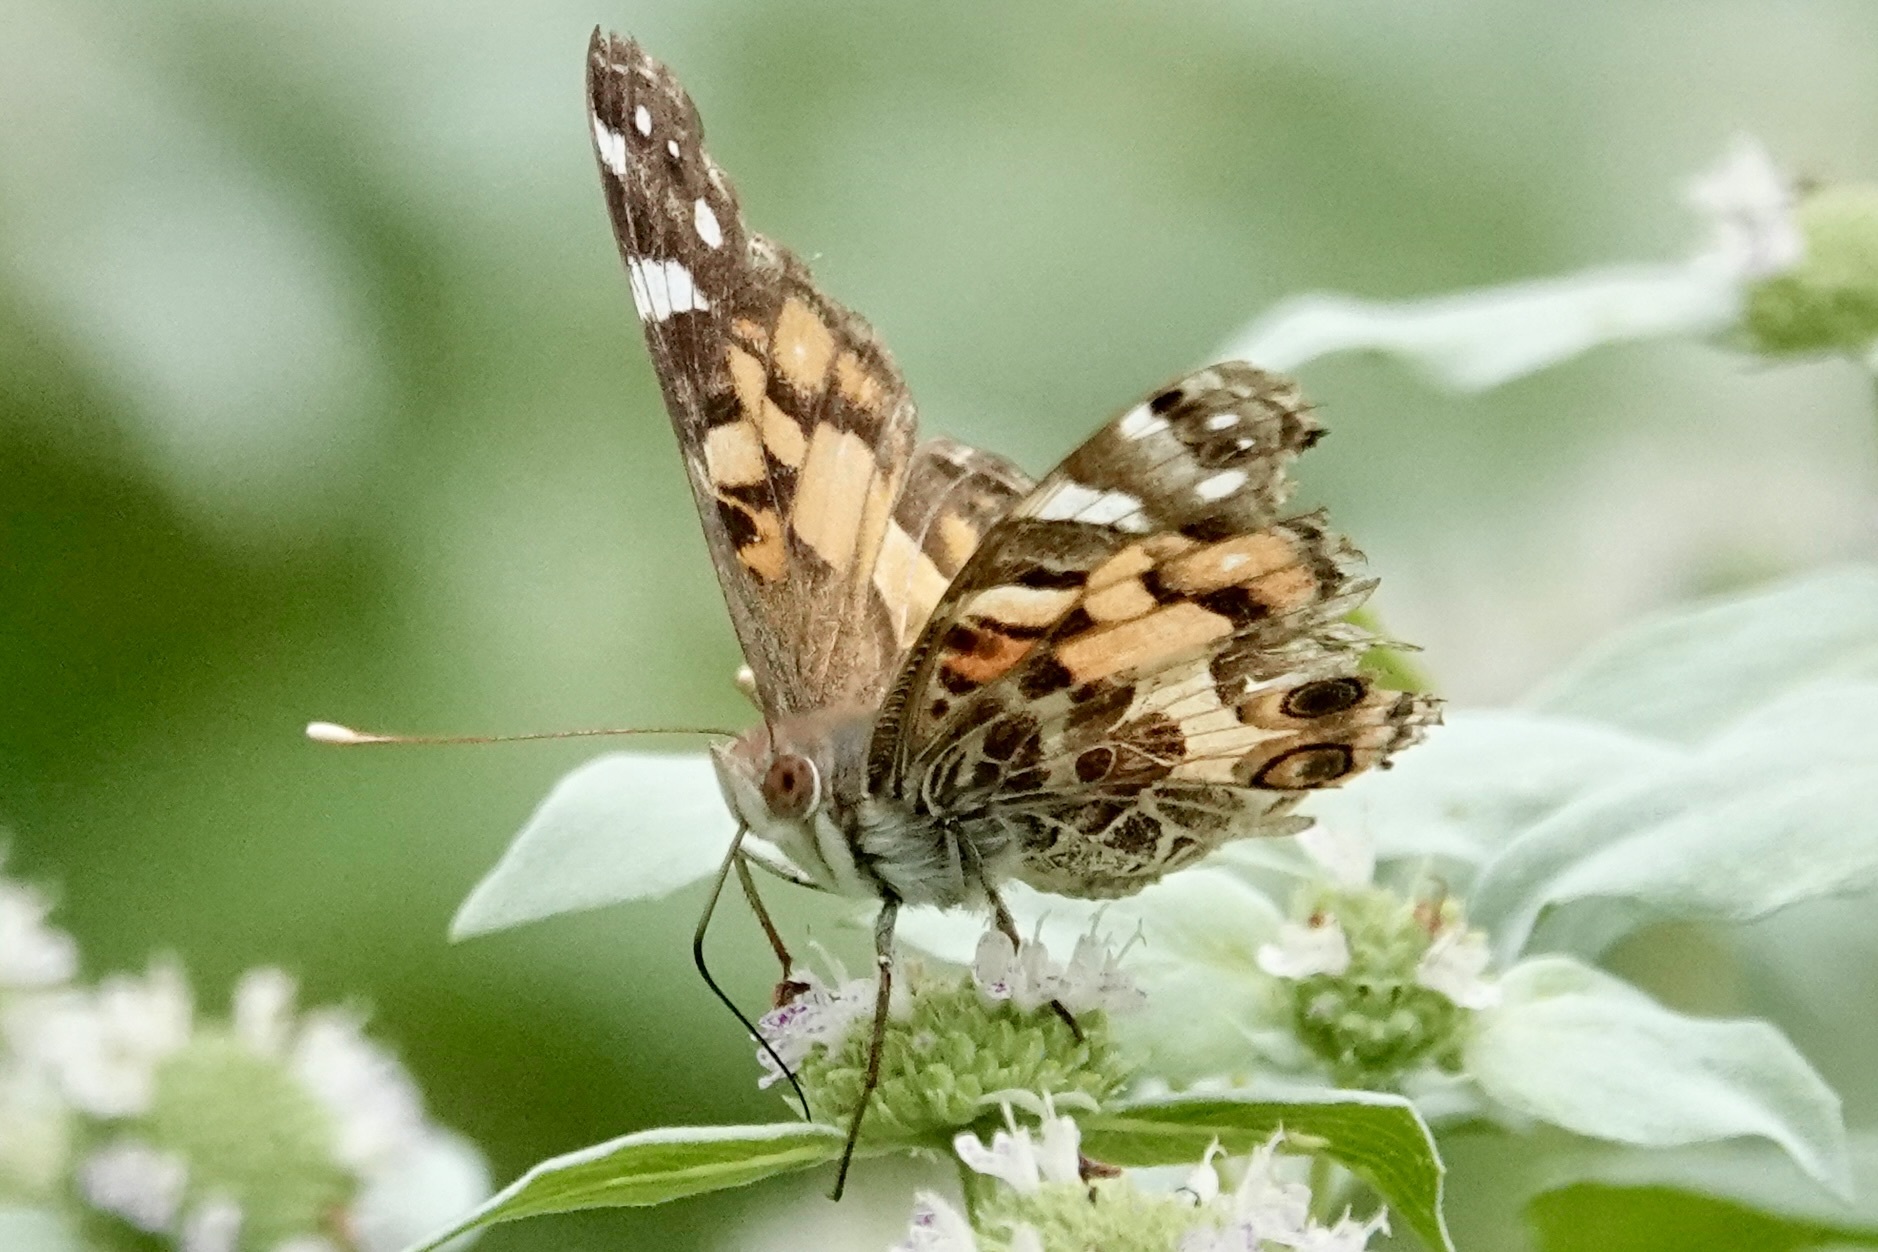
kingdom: Animalia
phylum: Arthropoda
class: Insecta
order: Lepidoptera
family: Nymphalidae
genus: Vanessa
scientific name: Vanessa virginiensis
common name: American lady
